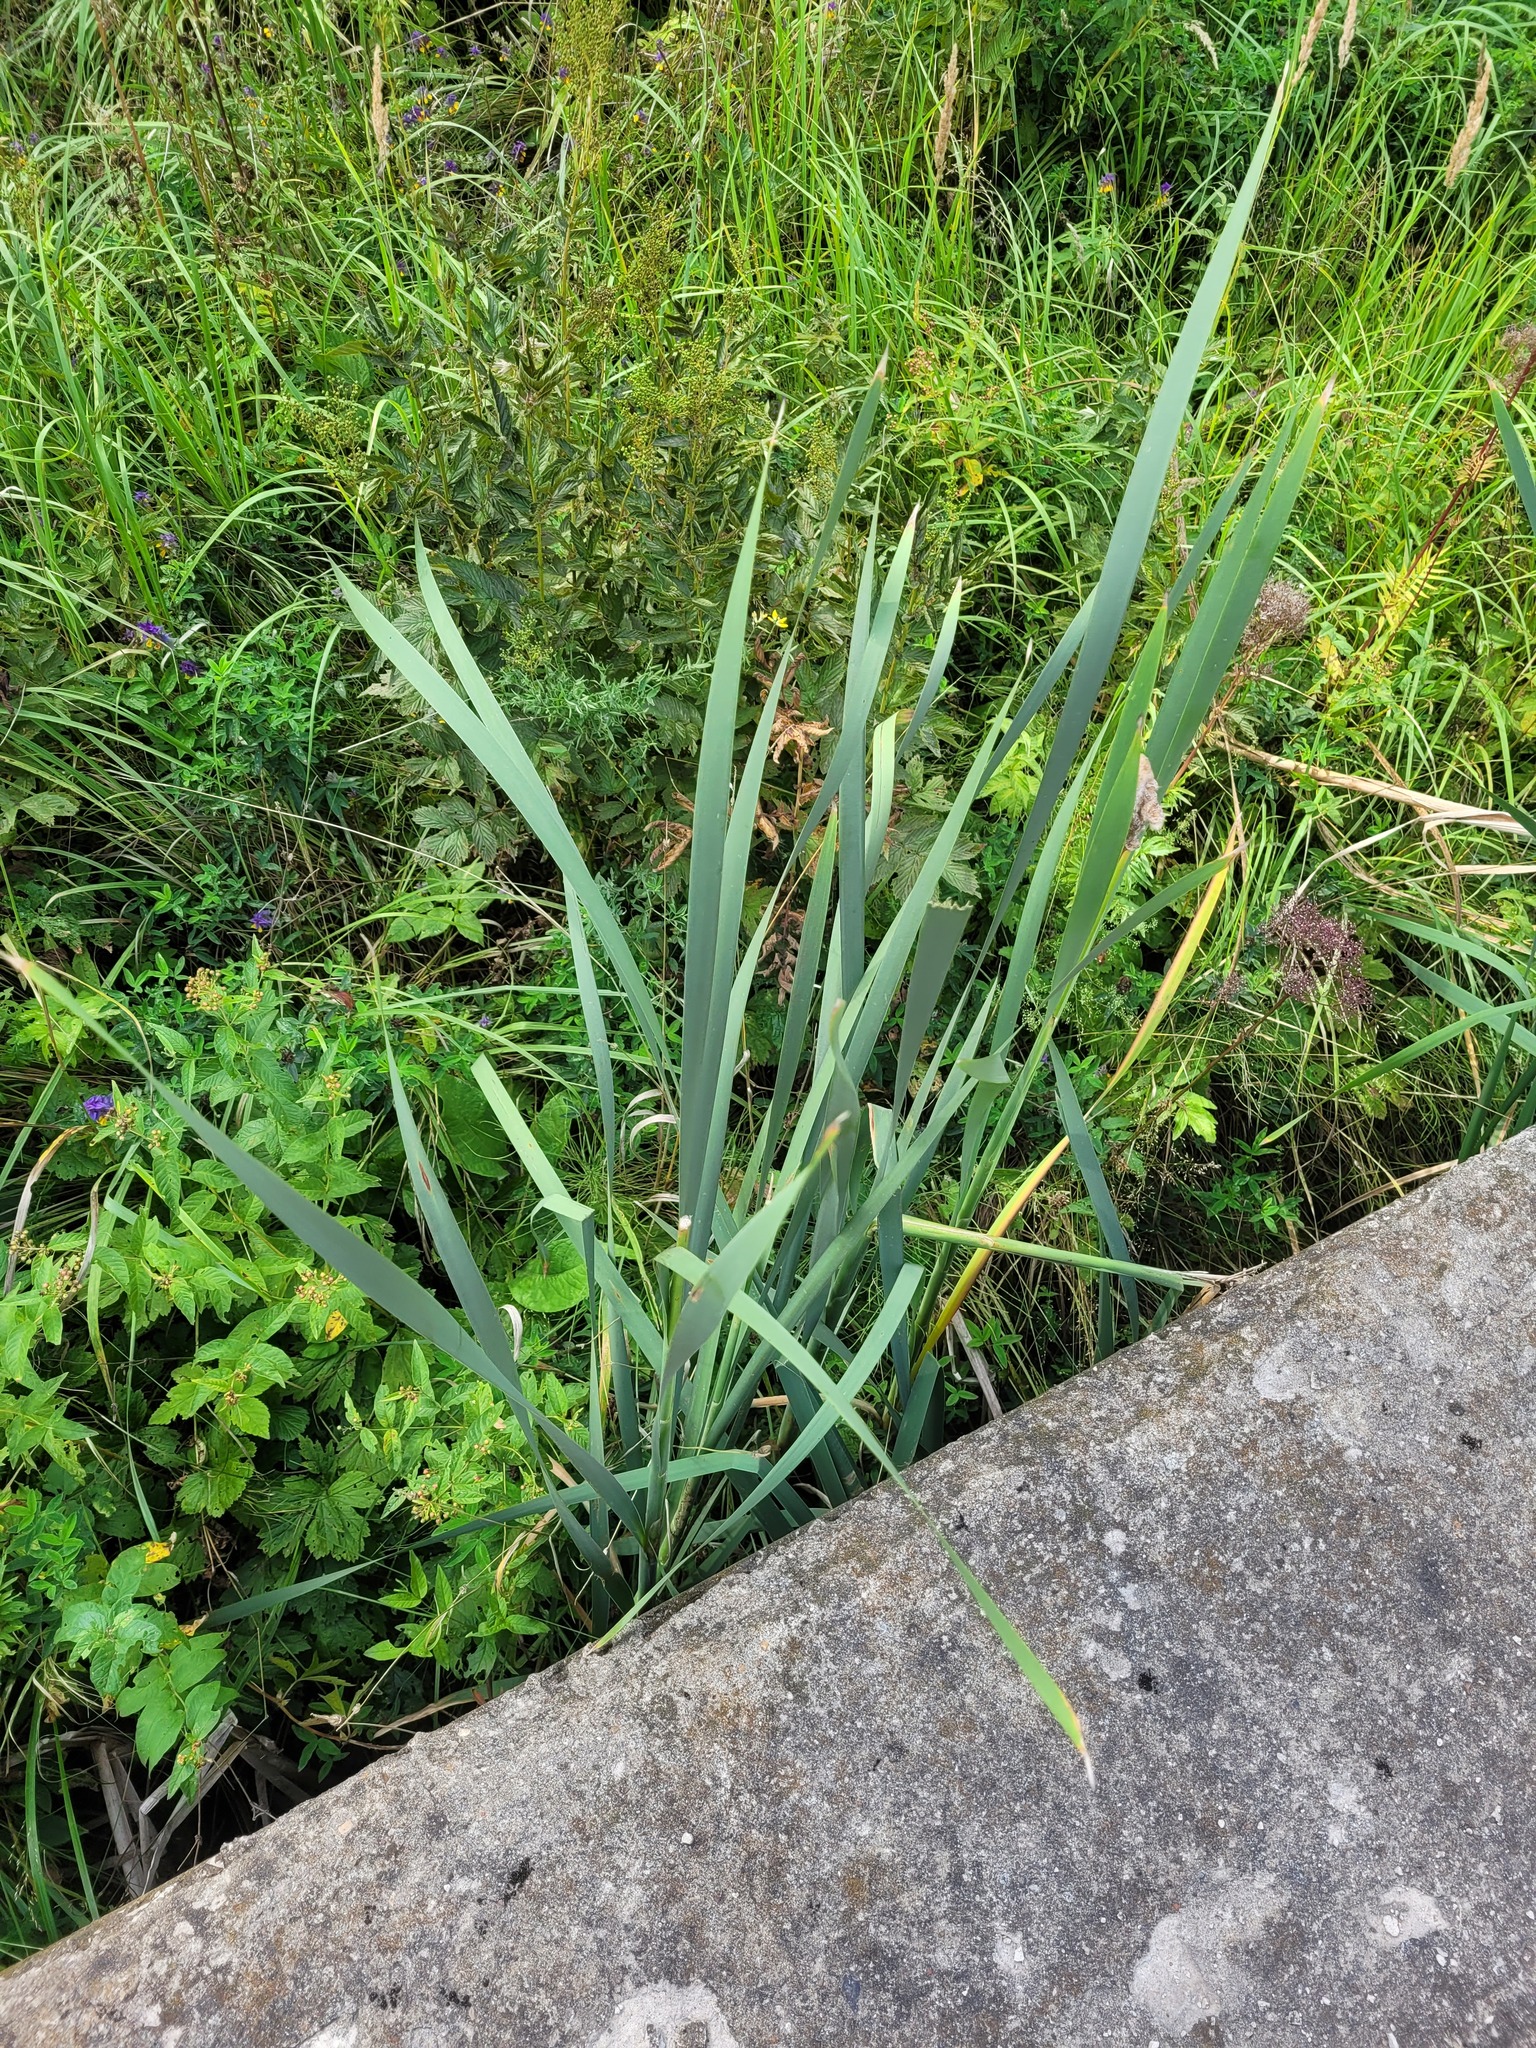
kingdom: Plantae
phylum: Tracheophyta
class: Liliopsida
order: Poales
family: Typhaceae
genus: Typha
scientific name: Typha latifolia
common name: Broadleaf cattail
